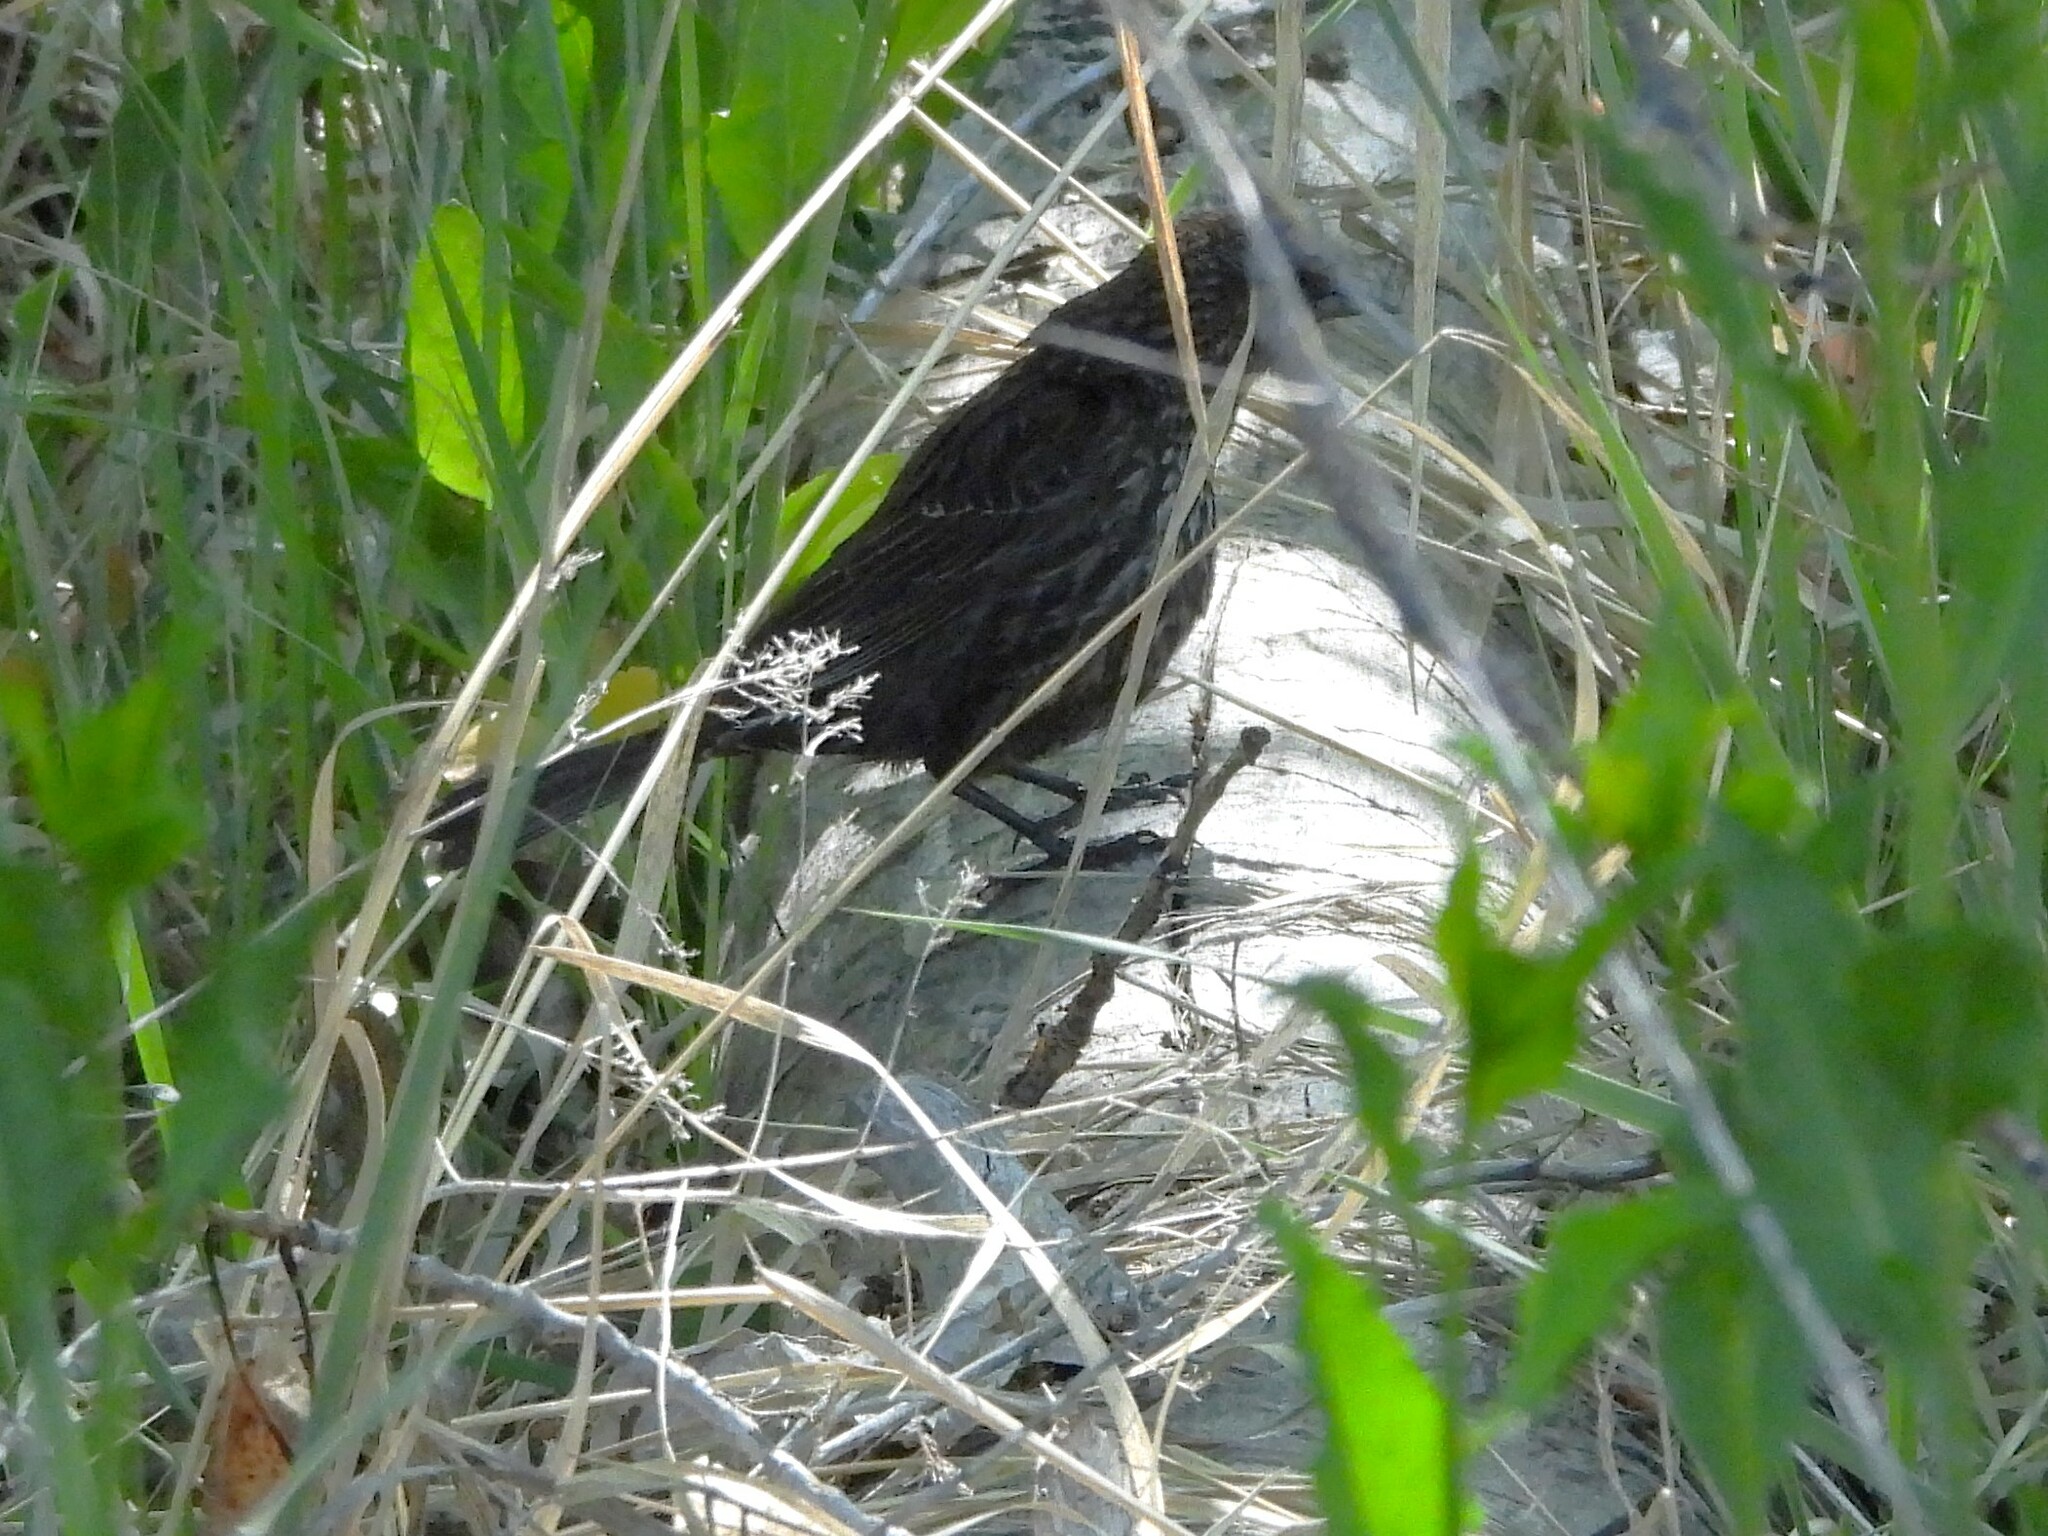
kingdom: Animalia
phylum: Chordata
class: Aves
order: Passeriformes
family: Icteridae
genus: Agelaius
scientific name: Agelaius phoeniceus
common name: Red-winged blackbird
